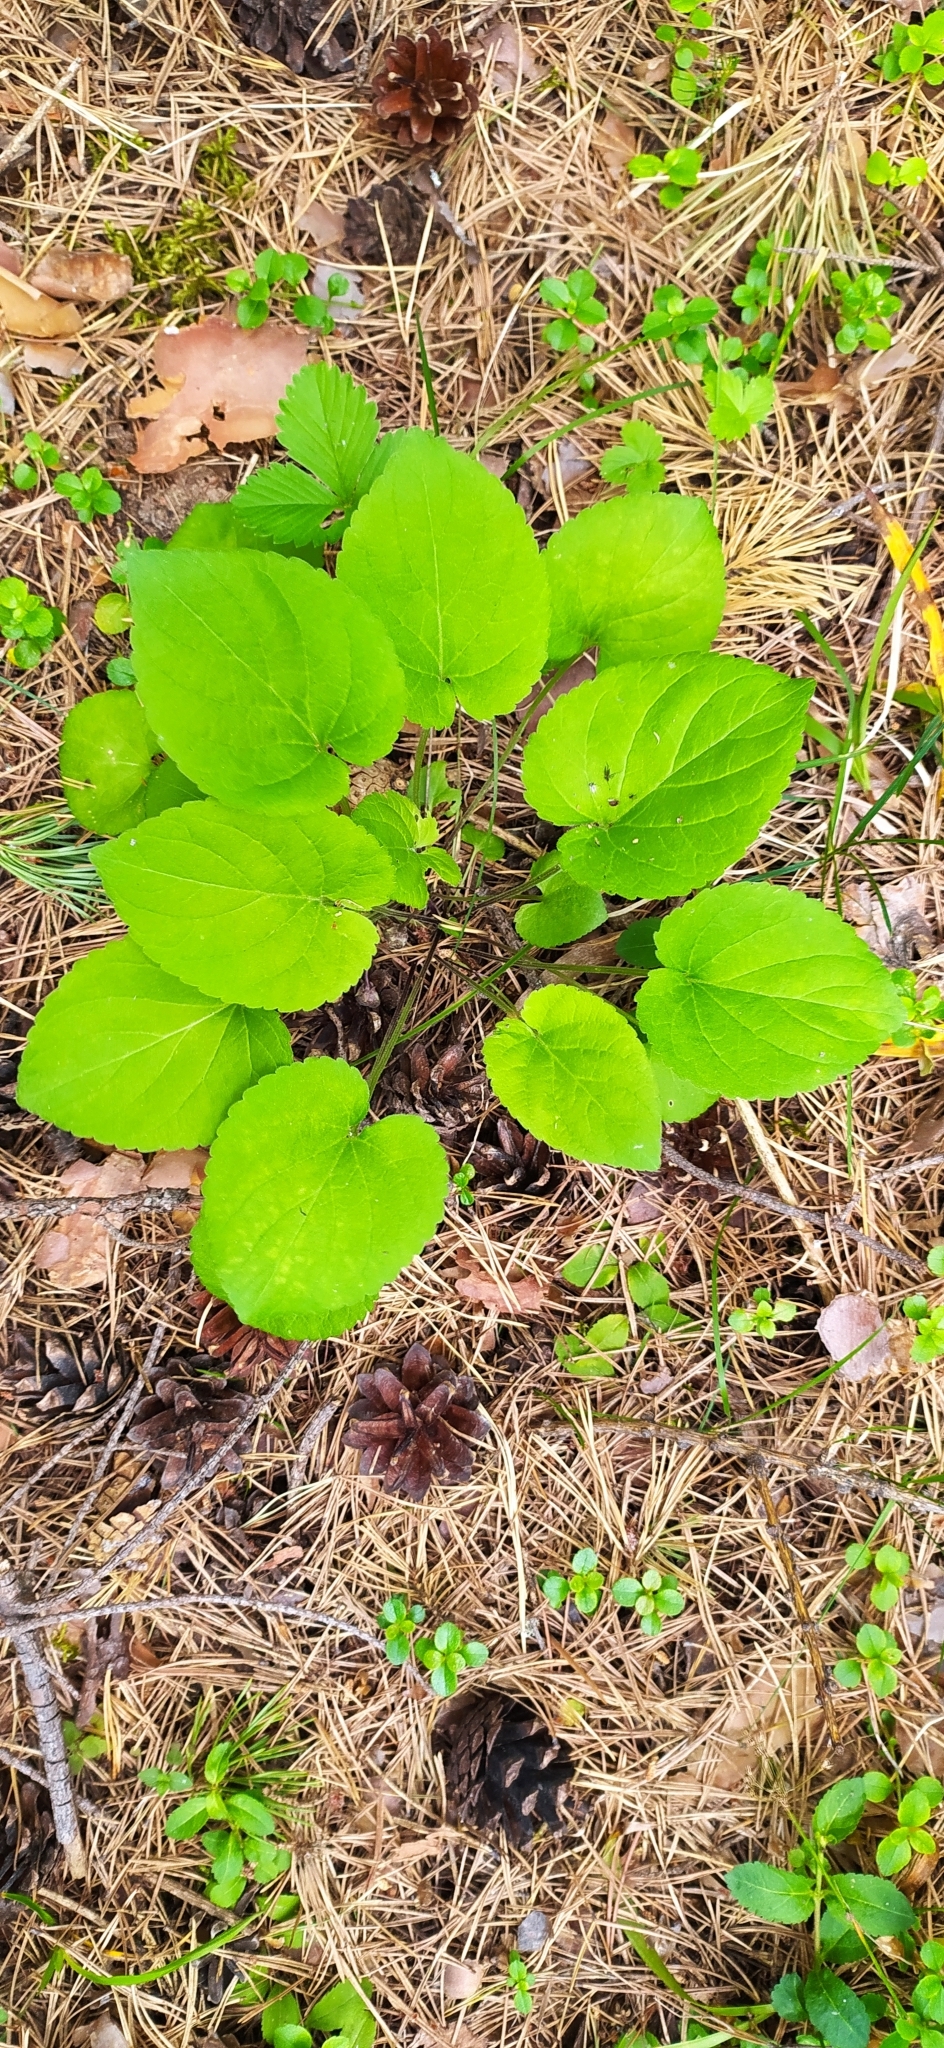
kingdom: Plantae
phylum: Tracheophyta
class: Magnoliopsida
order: Malpighiales
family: Violaceae
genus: Viola
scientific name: Viola collina
